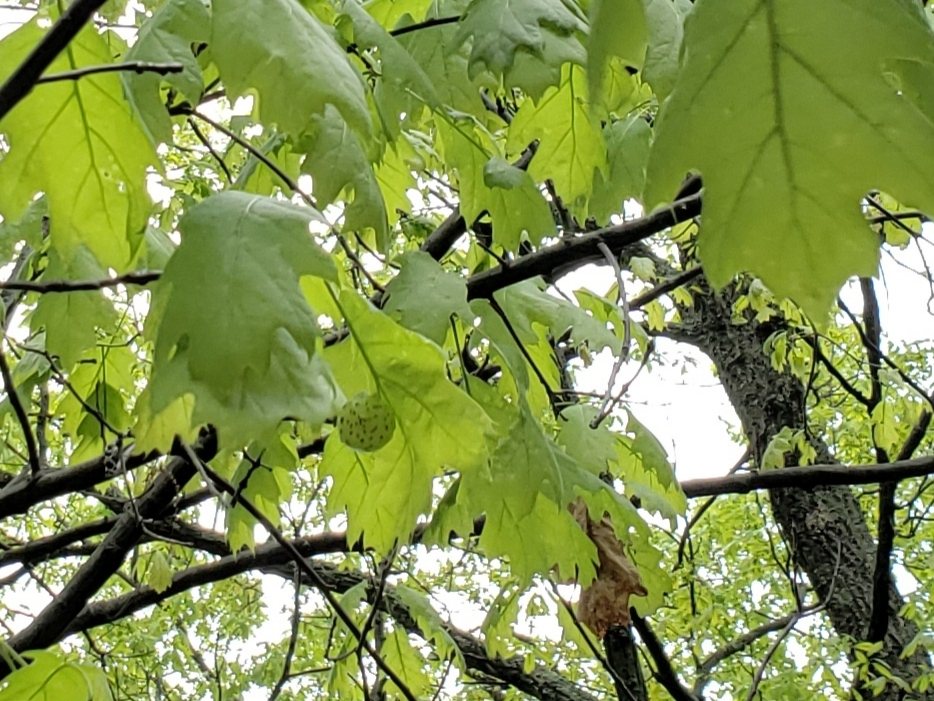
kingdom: Animalia
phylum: Arthropoda
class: Insecta
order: Hymenoptera
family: Cynipidae
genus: Amphibolips
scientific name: Amphibolips
